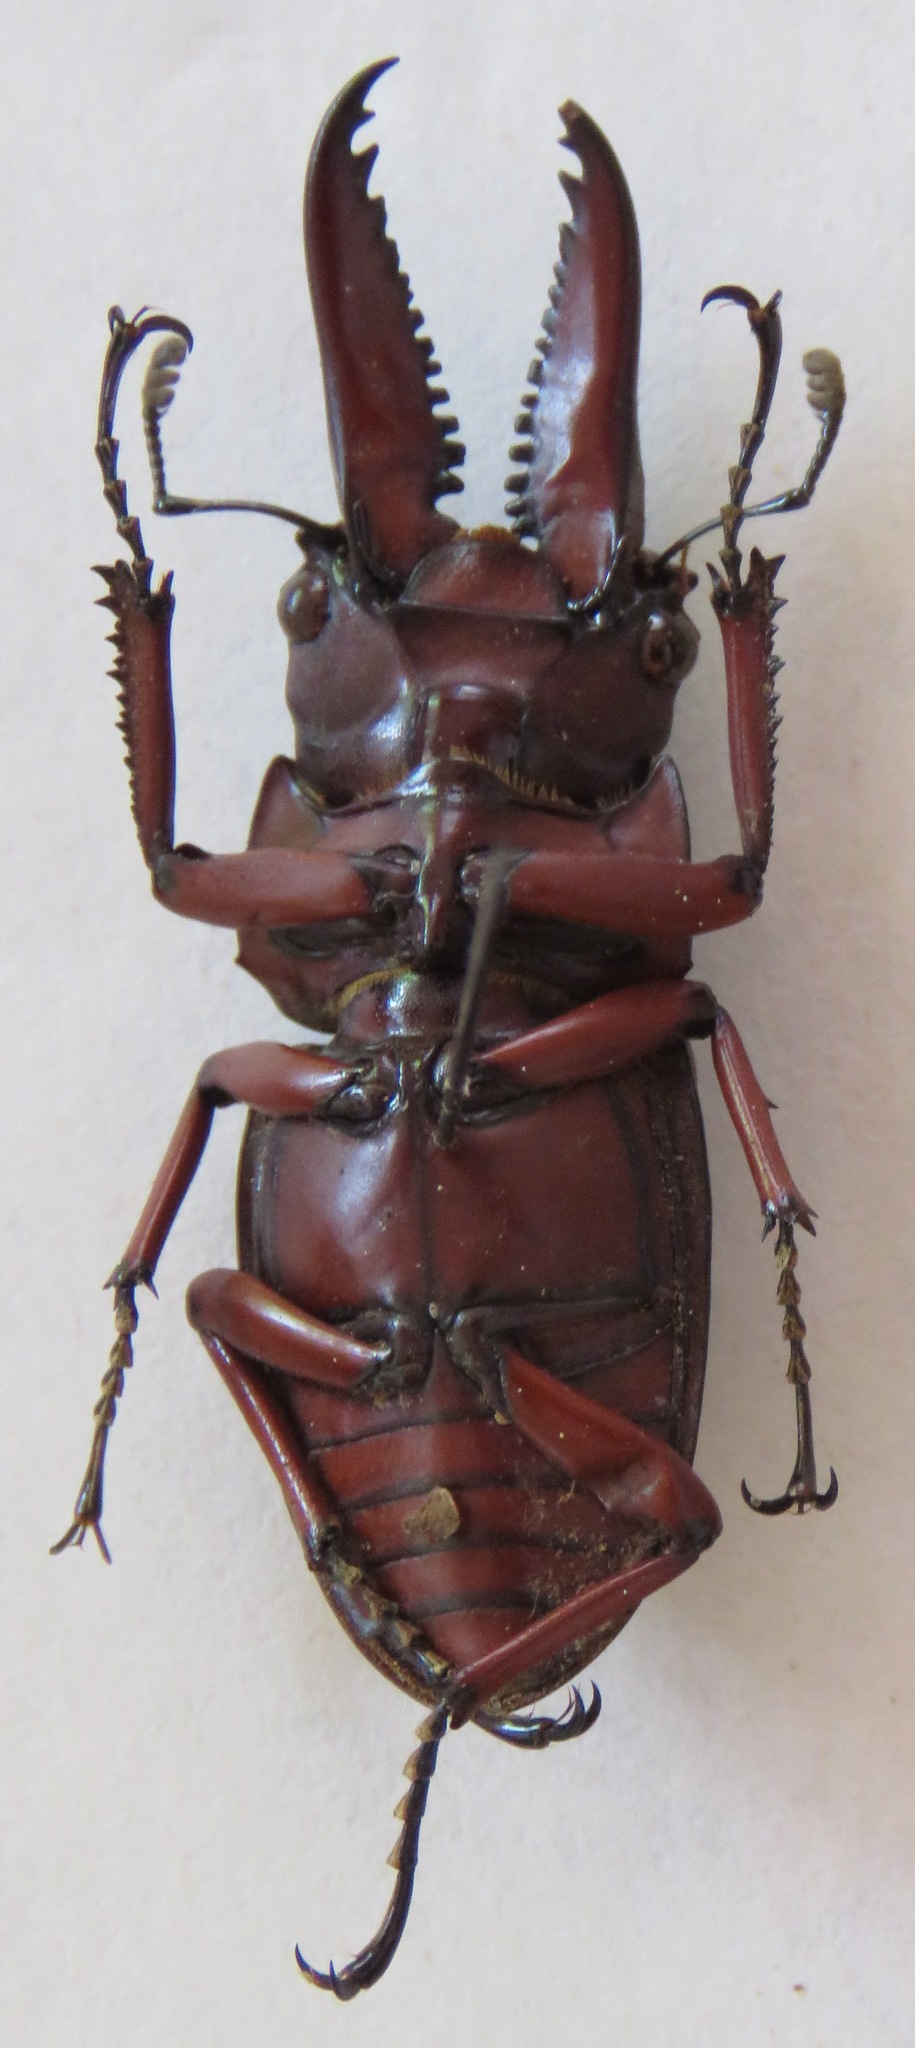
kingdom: Animalia
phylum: Arthropoda
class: Insecta
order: Coleoptera
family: Lucanidae
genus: Prosopocoilus
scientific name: Prosopocoilus astacoides
